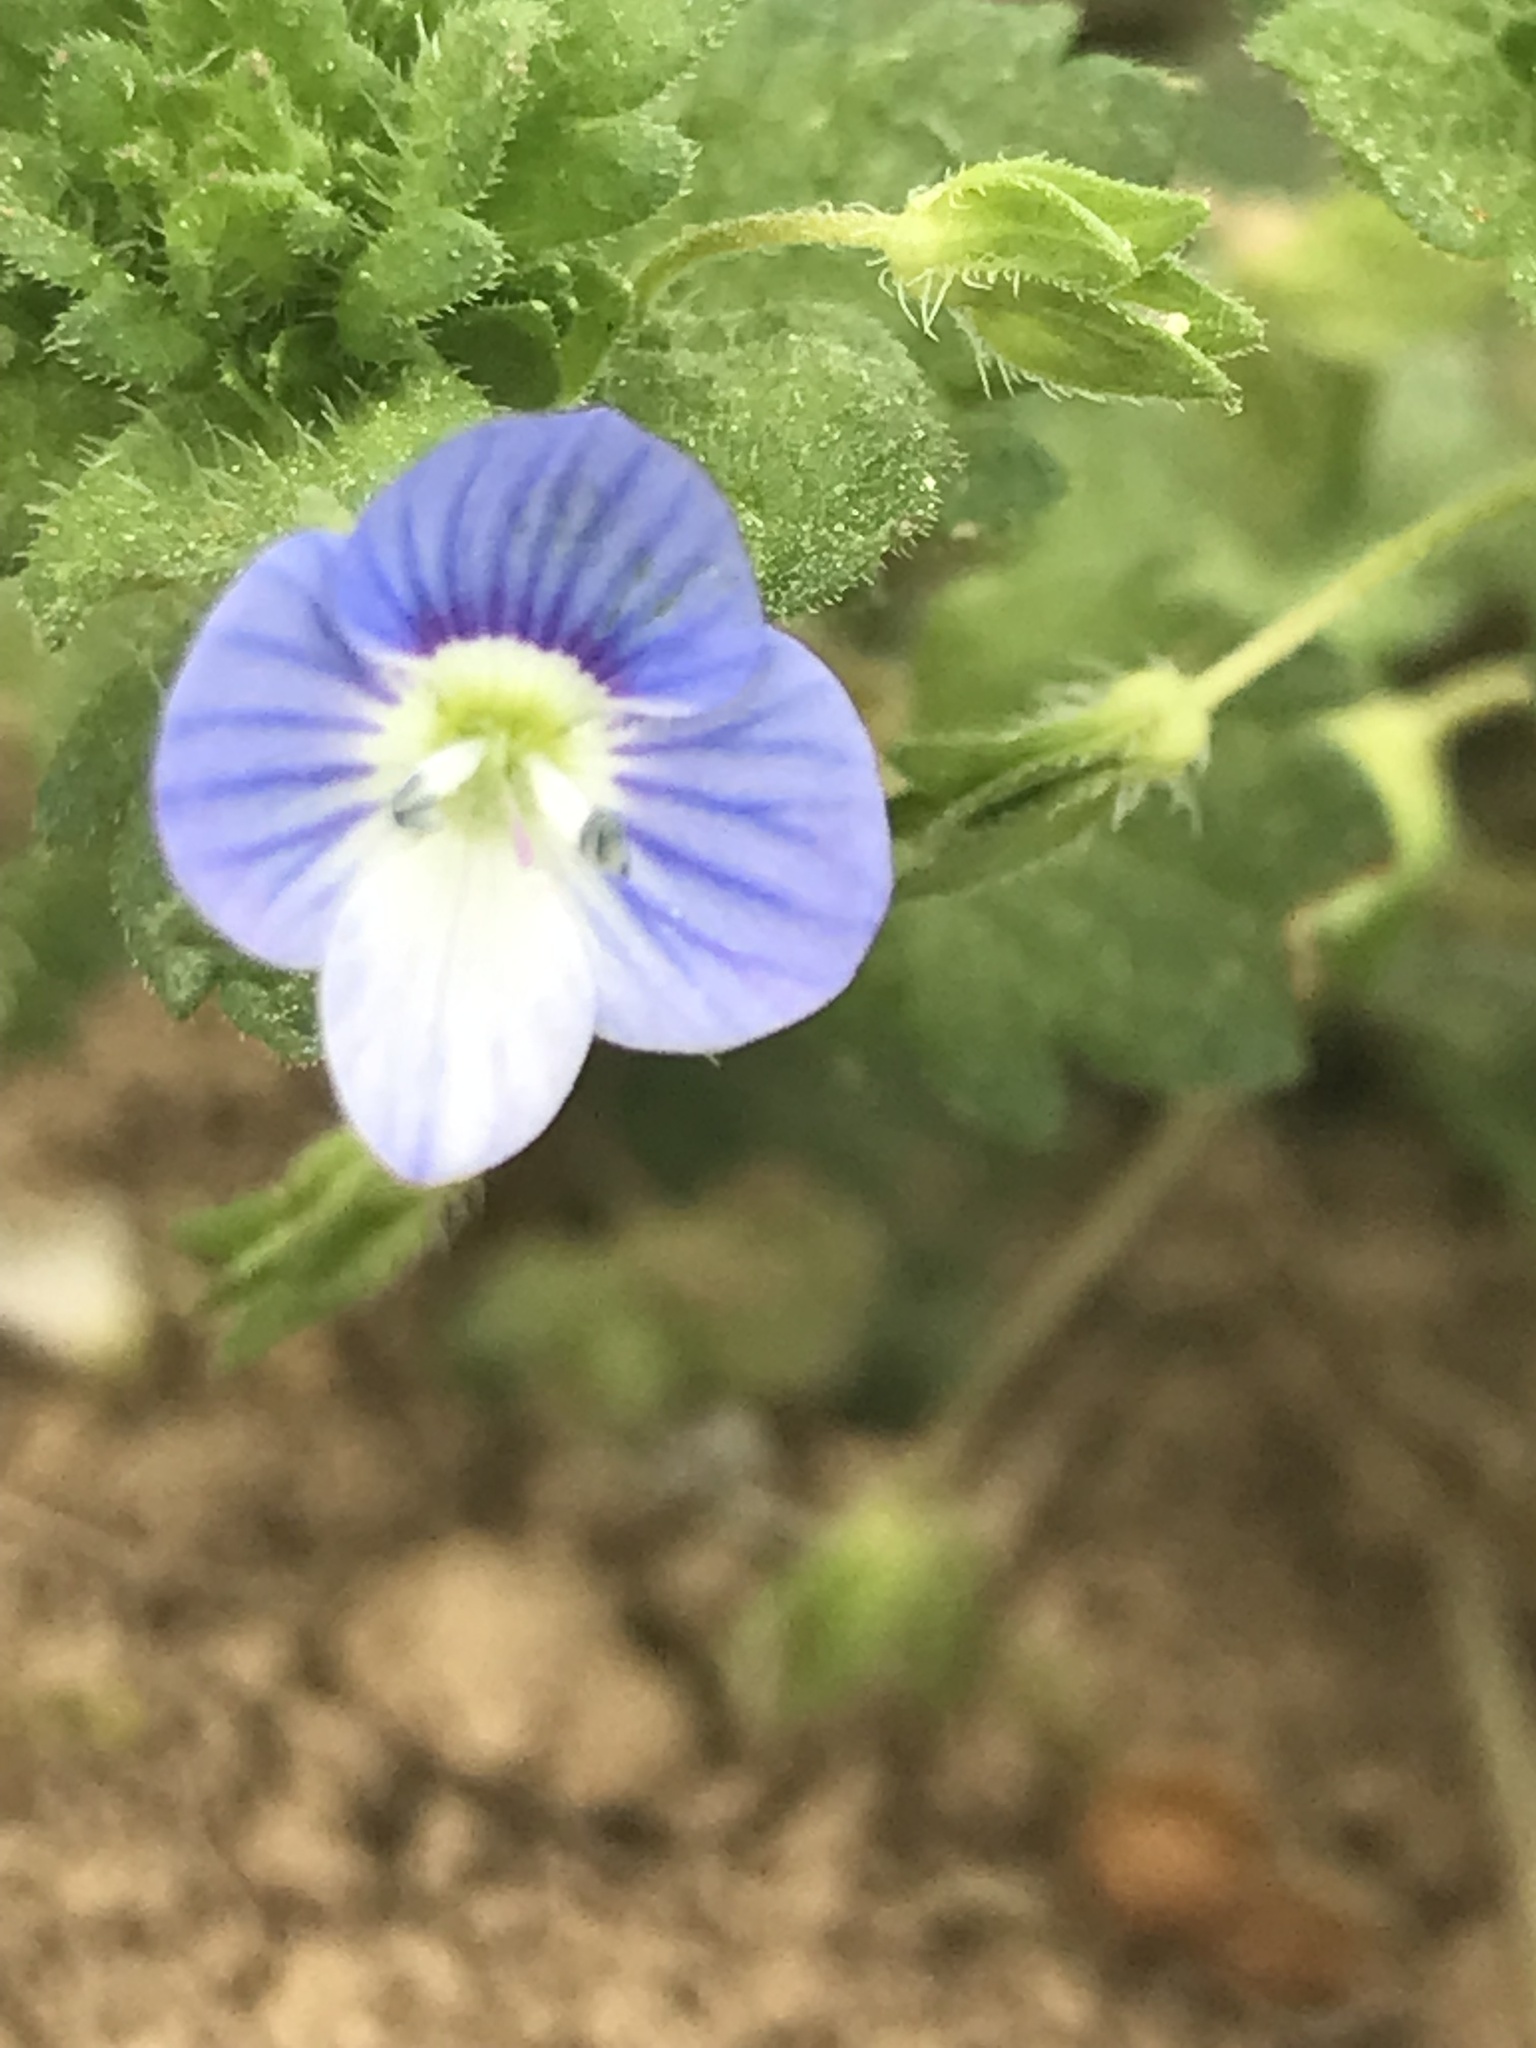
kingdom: Plantae
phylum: Tracheophyta
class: Magnoliopsida
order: Lamiales
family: Plantaginaceae
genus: Veronica
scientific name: Veronica persica
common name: Common field-speedwell
